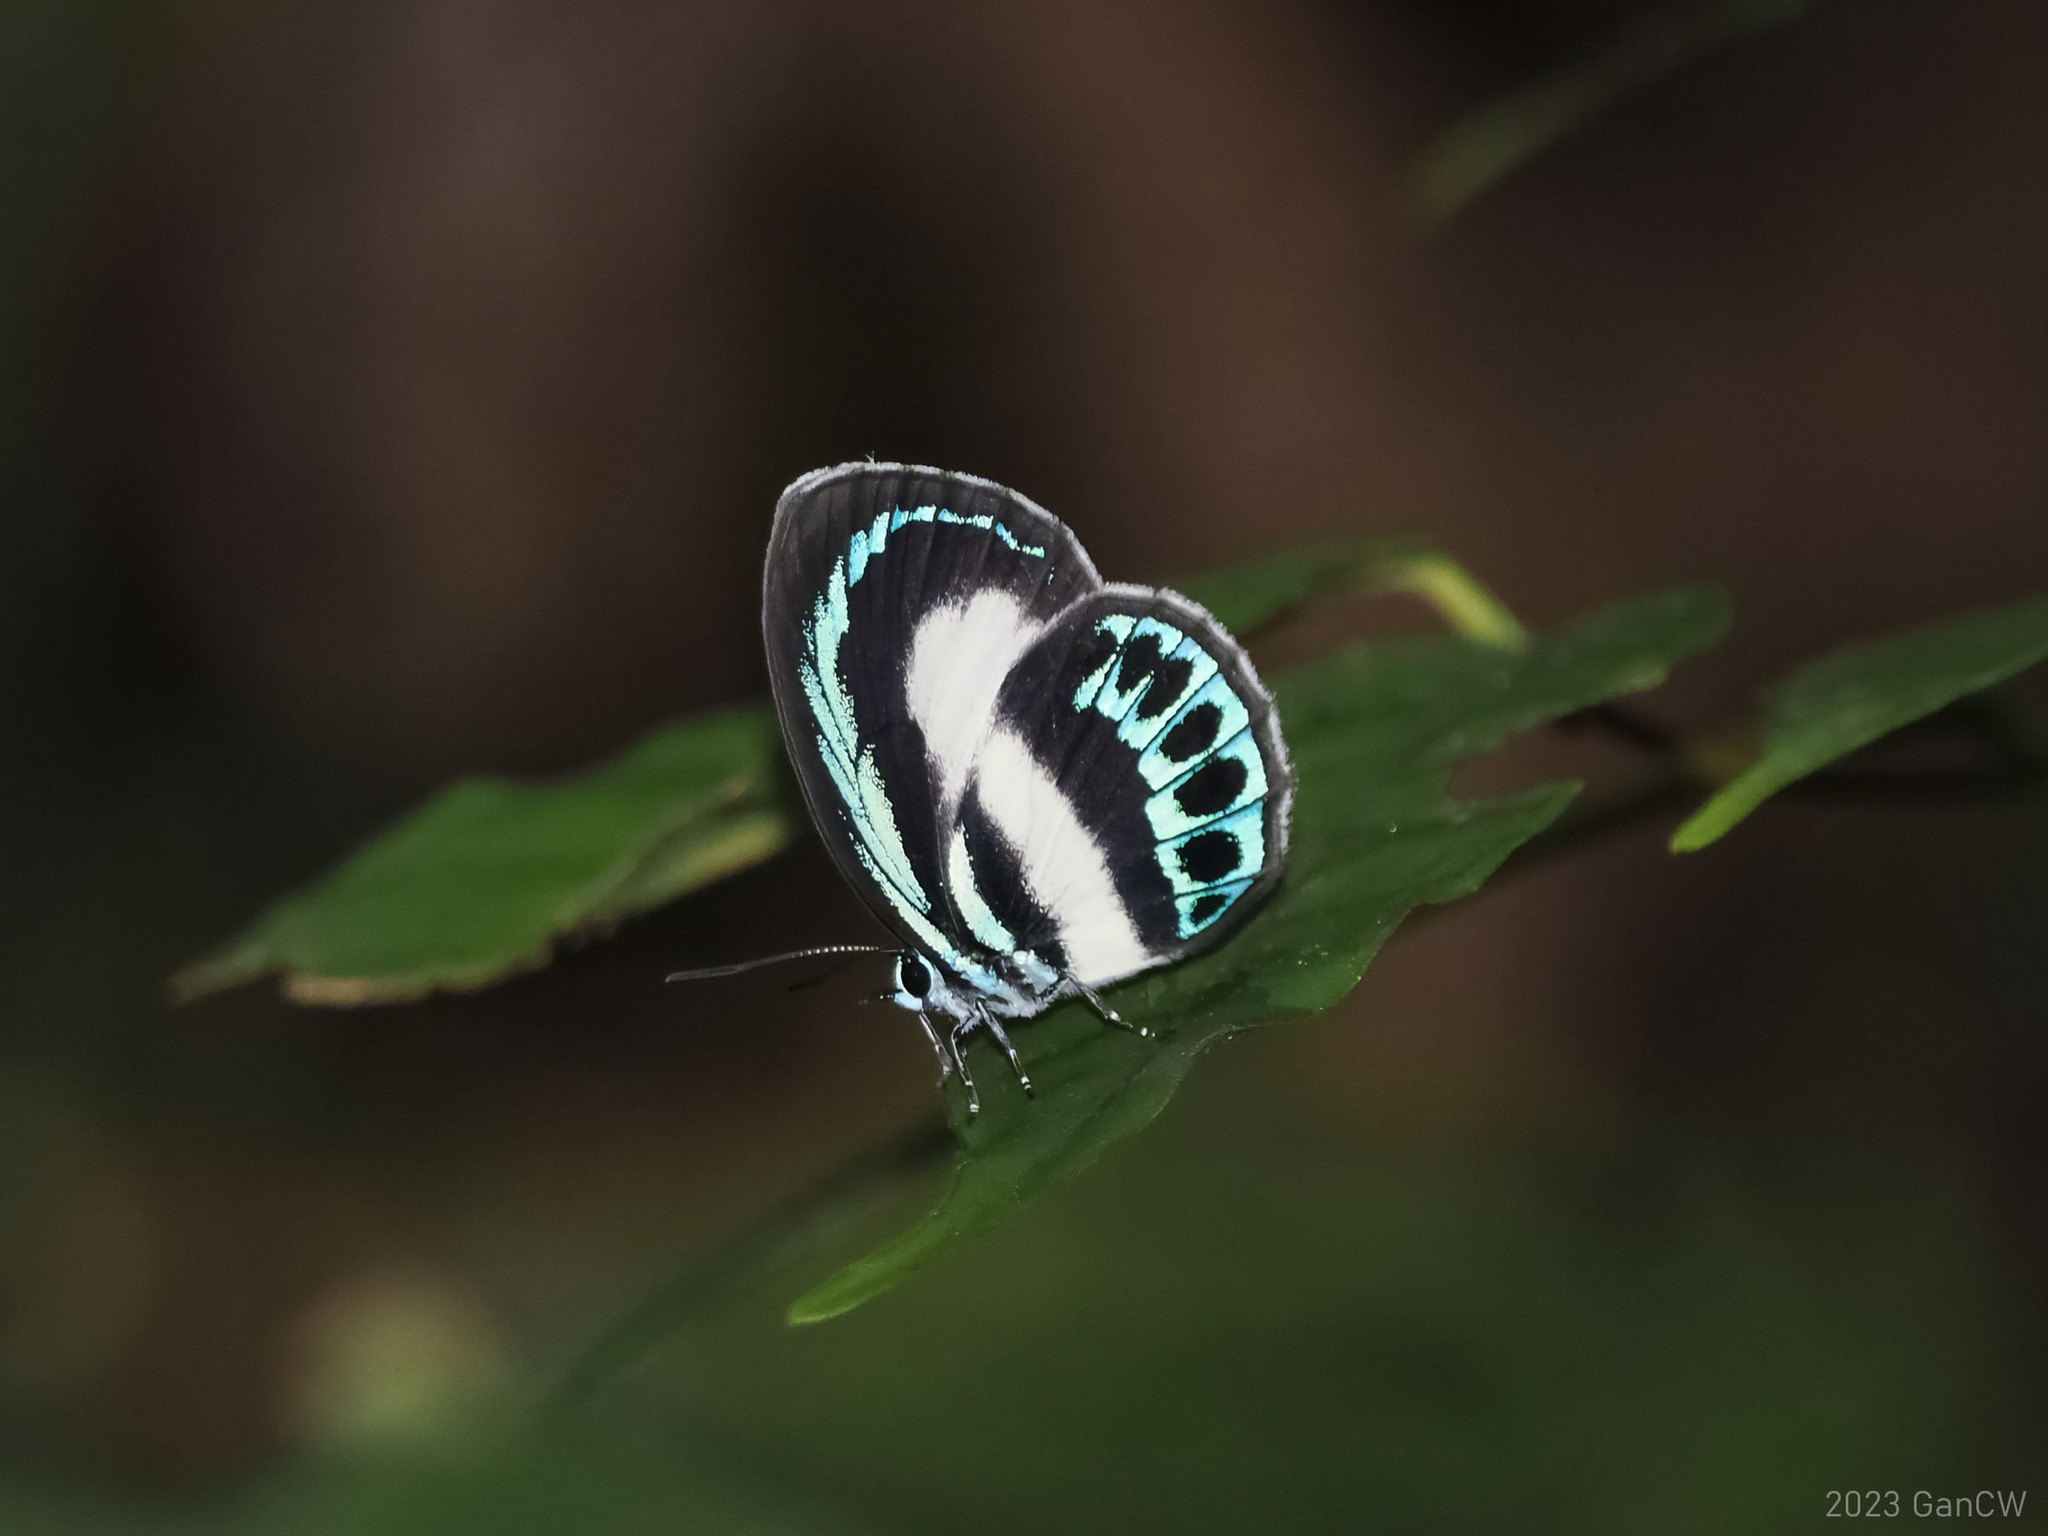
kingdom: Animalia
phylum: Arthropoda
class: Insecta
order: Lepidoptera
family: Lycaenidae
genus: Danis
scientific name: Danis danis
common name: Large green-banded blue
